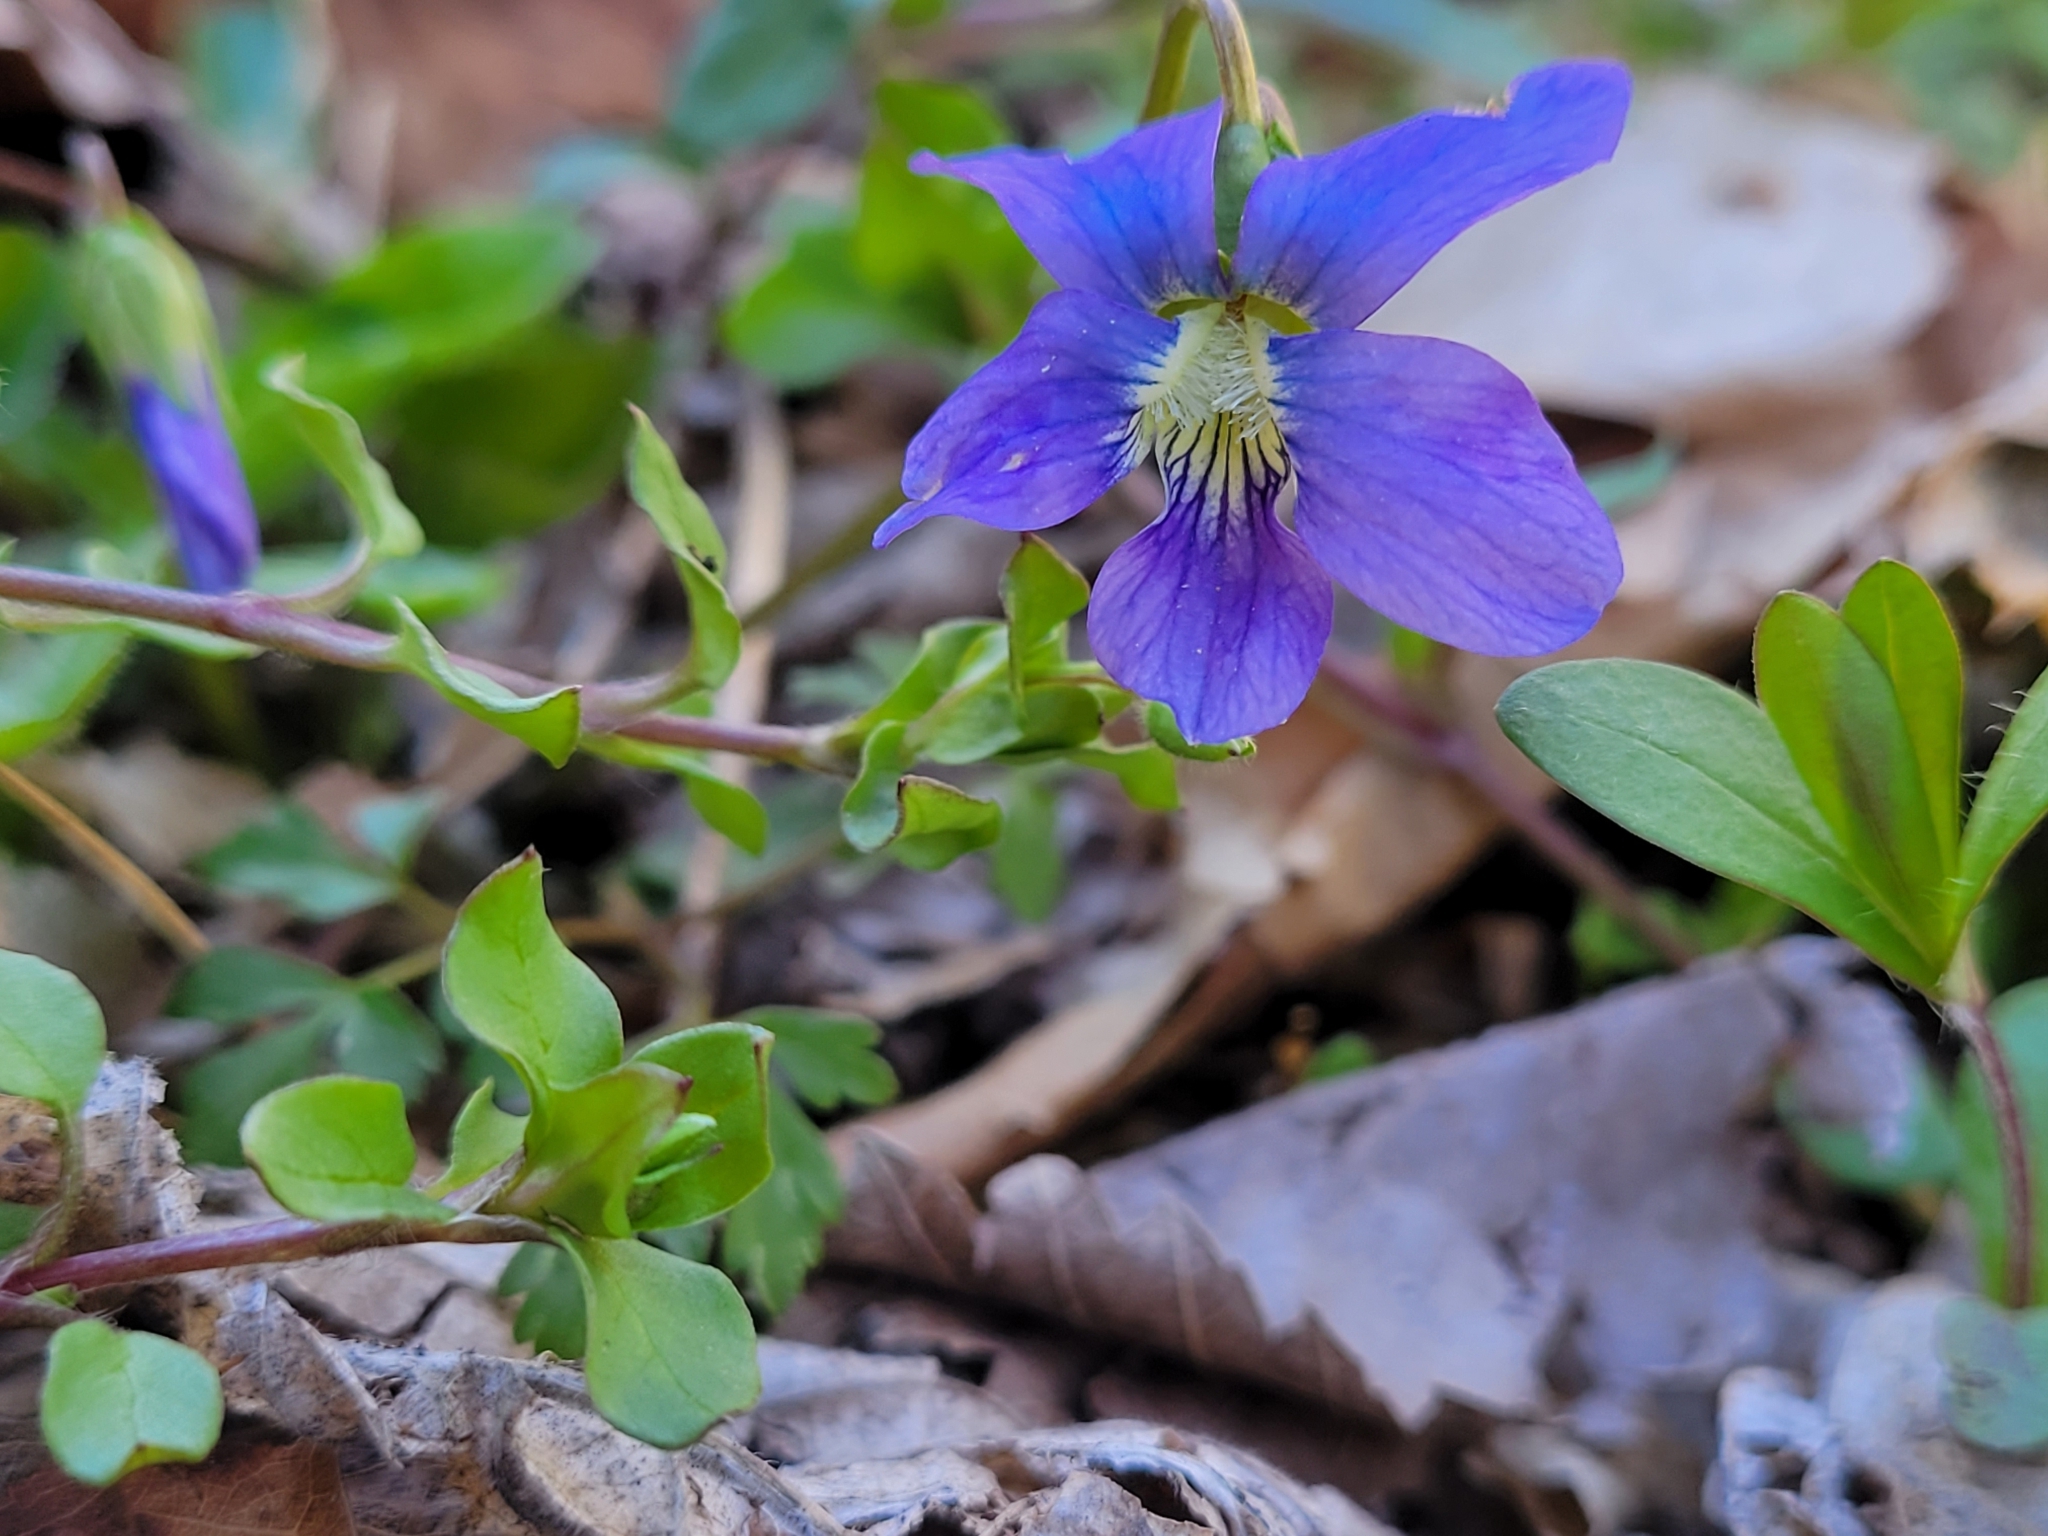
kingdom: Plantae
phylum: Tracheophyta
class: Magnoliopsida
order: Malpighiales
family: Violaceae
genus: Viola
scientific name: Viola sororia
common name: Dooryard violet
